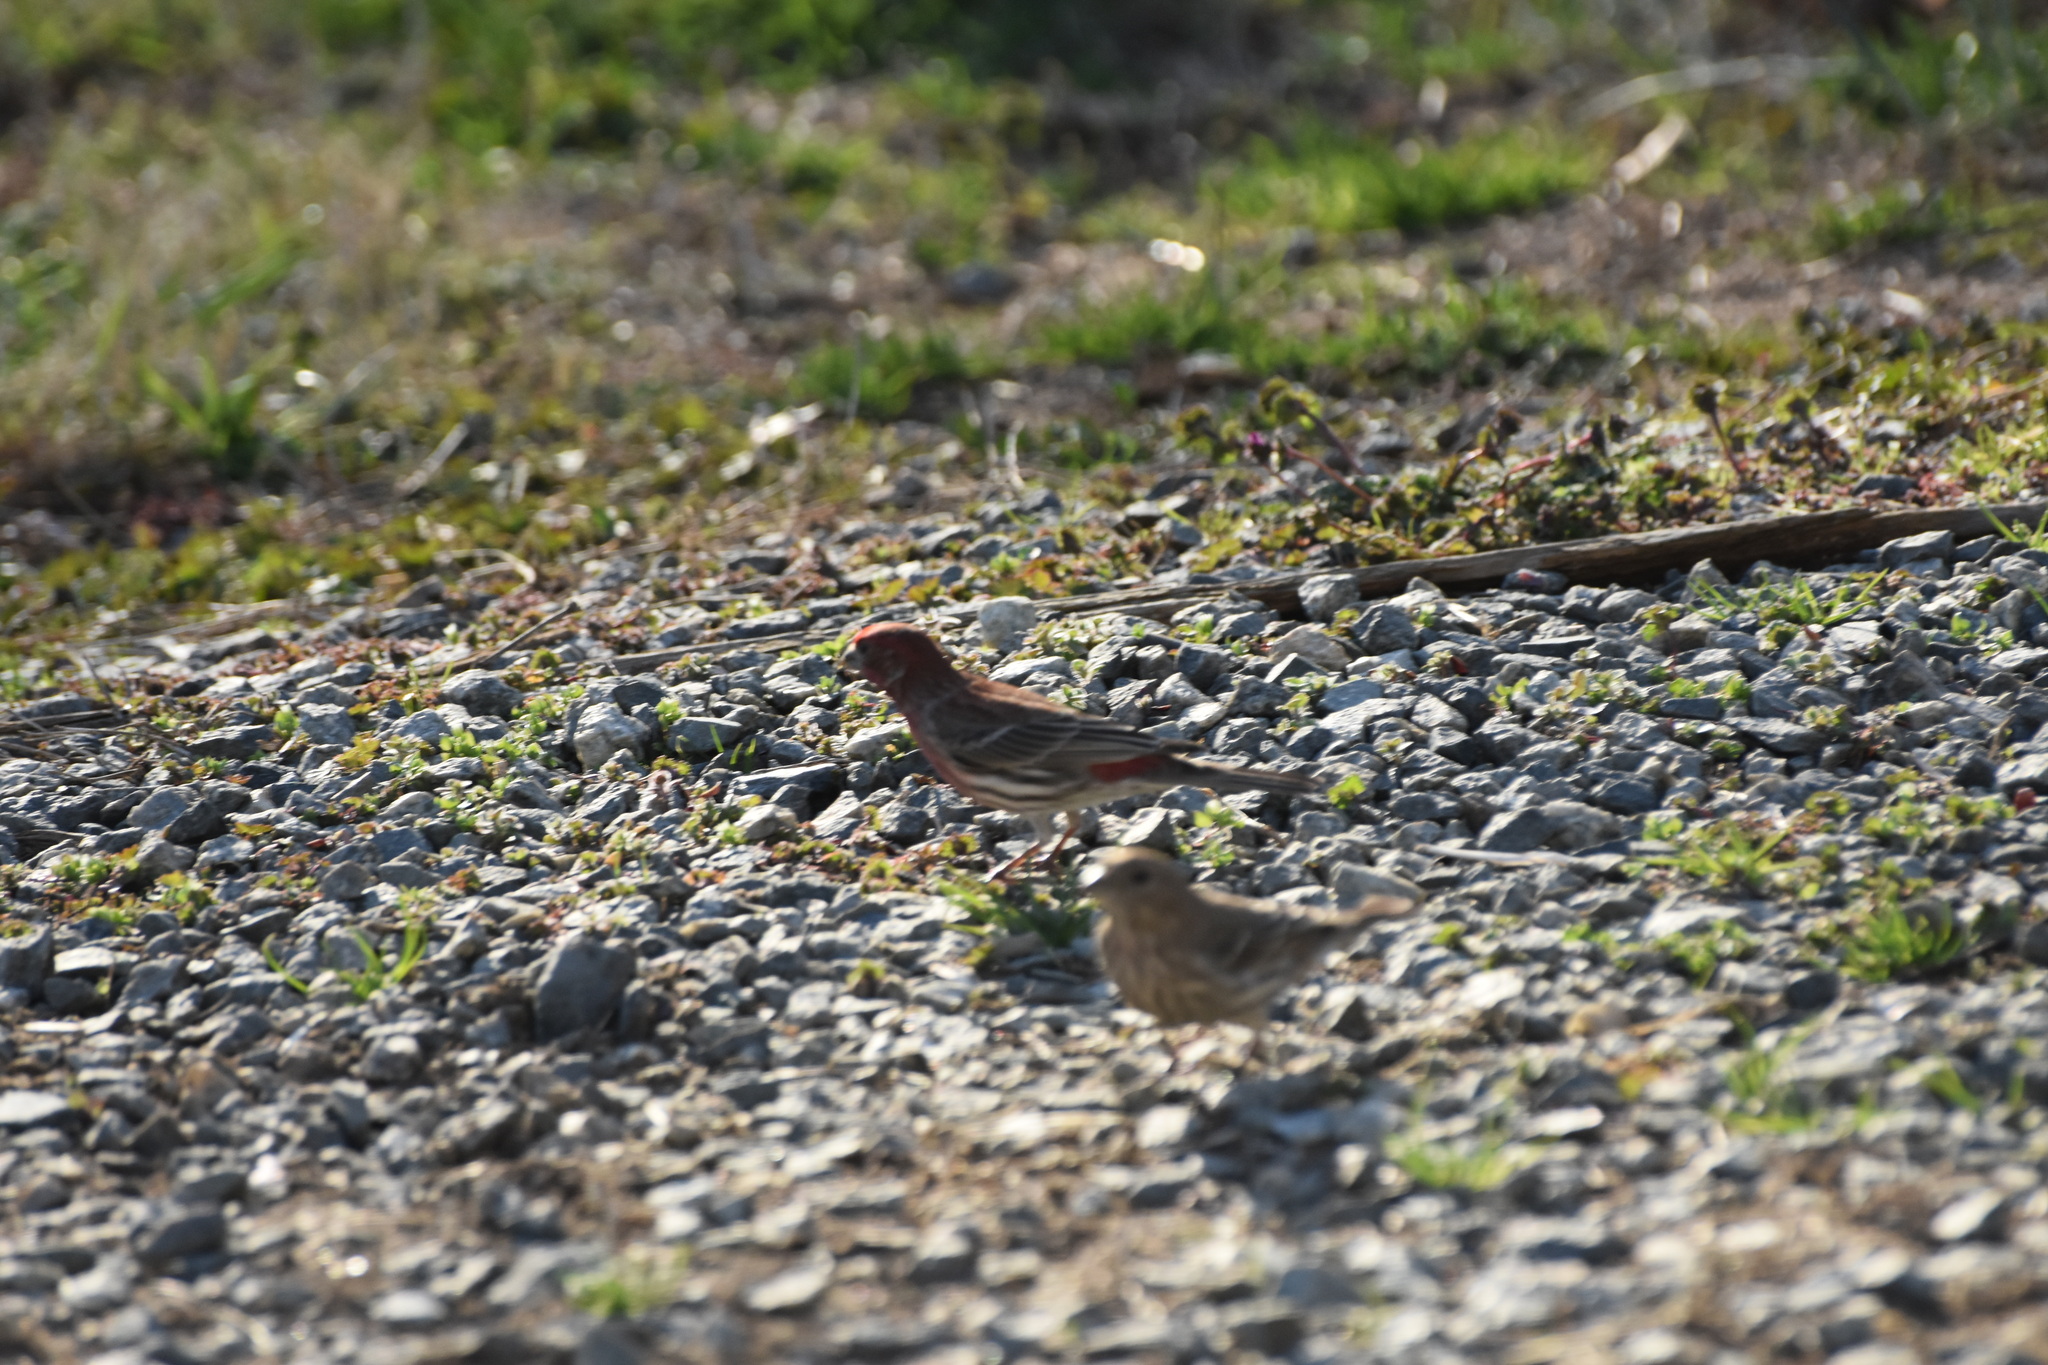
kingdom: Animalia
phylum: Chordata
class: Aves
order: Passeriformes
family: Fringillidae
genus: Haemorhous
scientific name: Haemorhous mexicanus
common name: House finch
